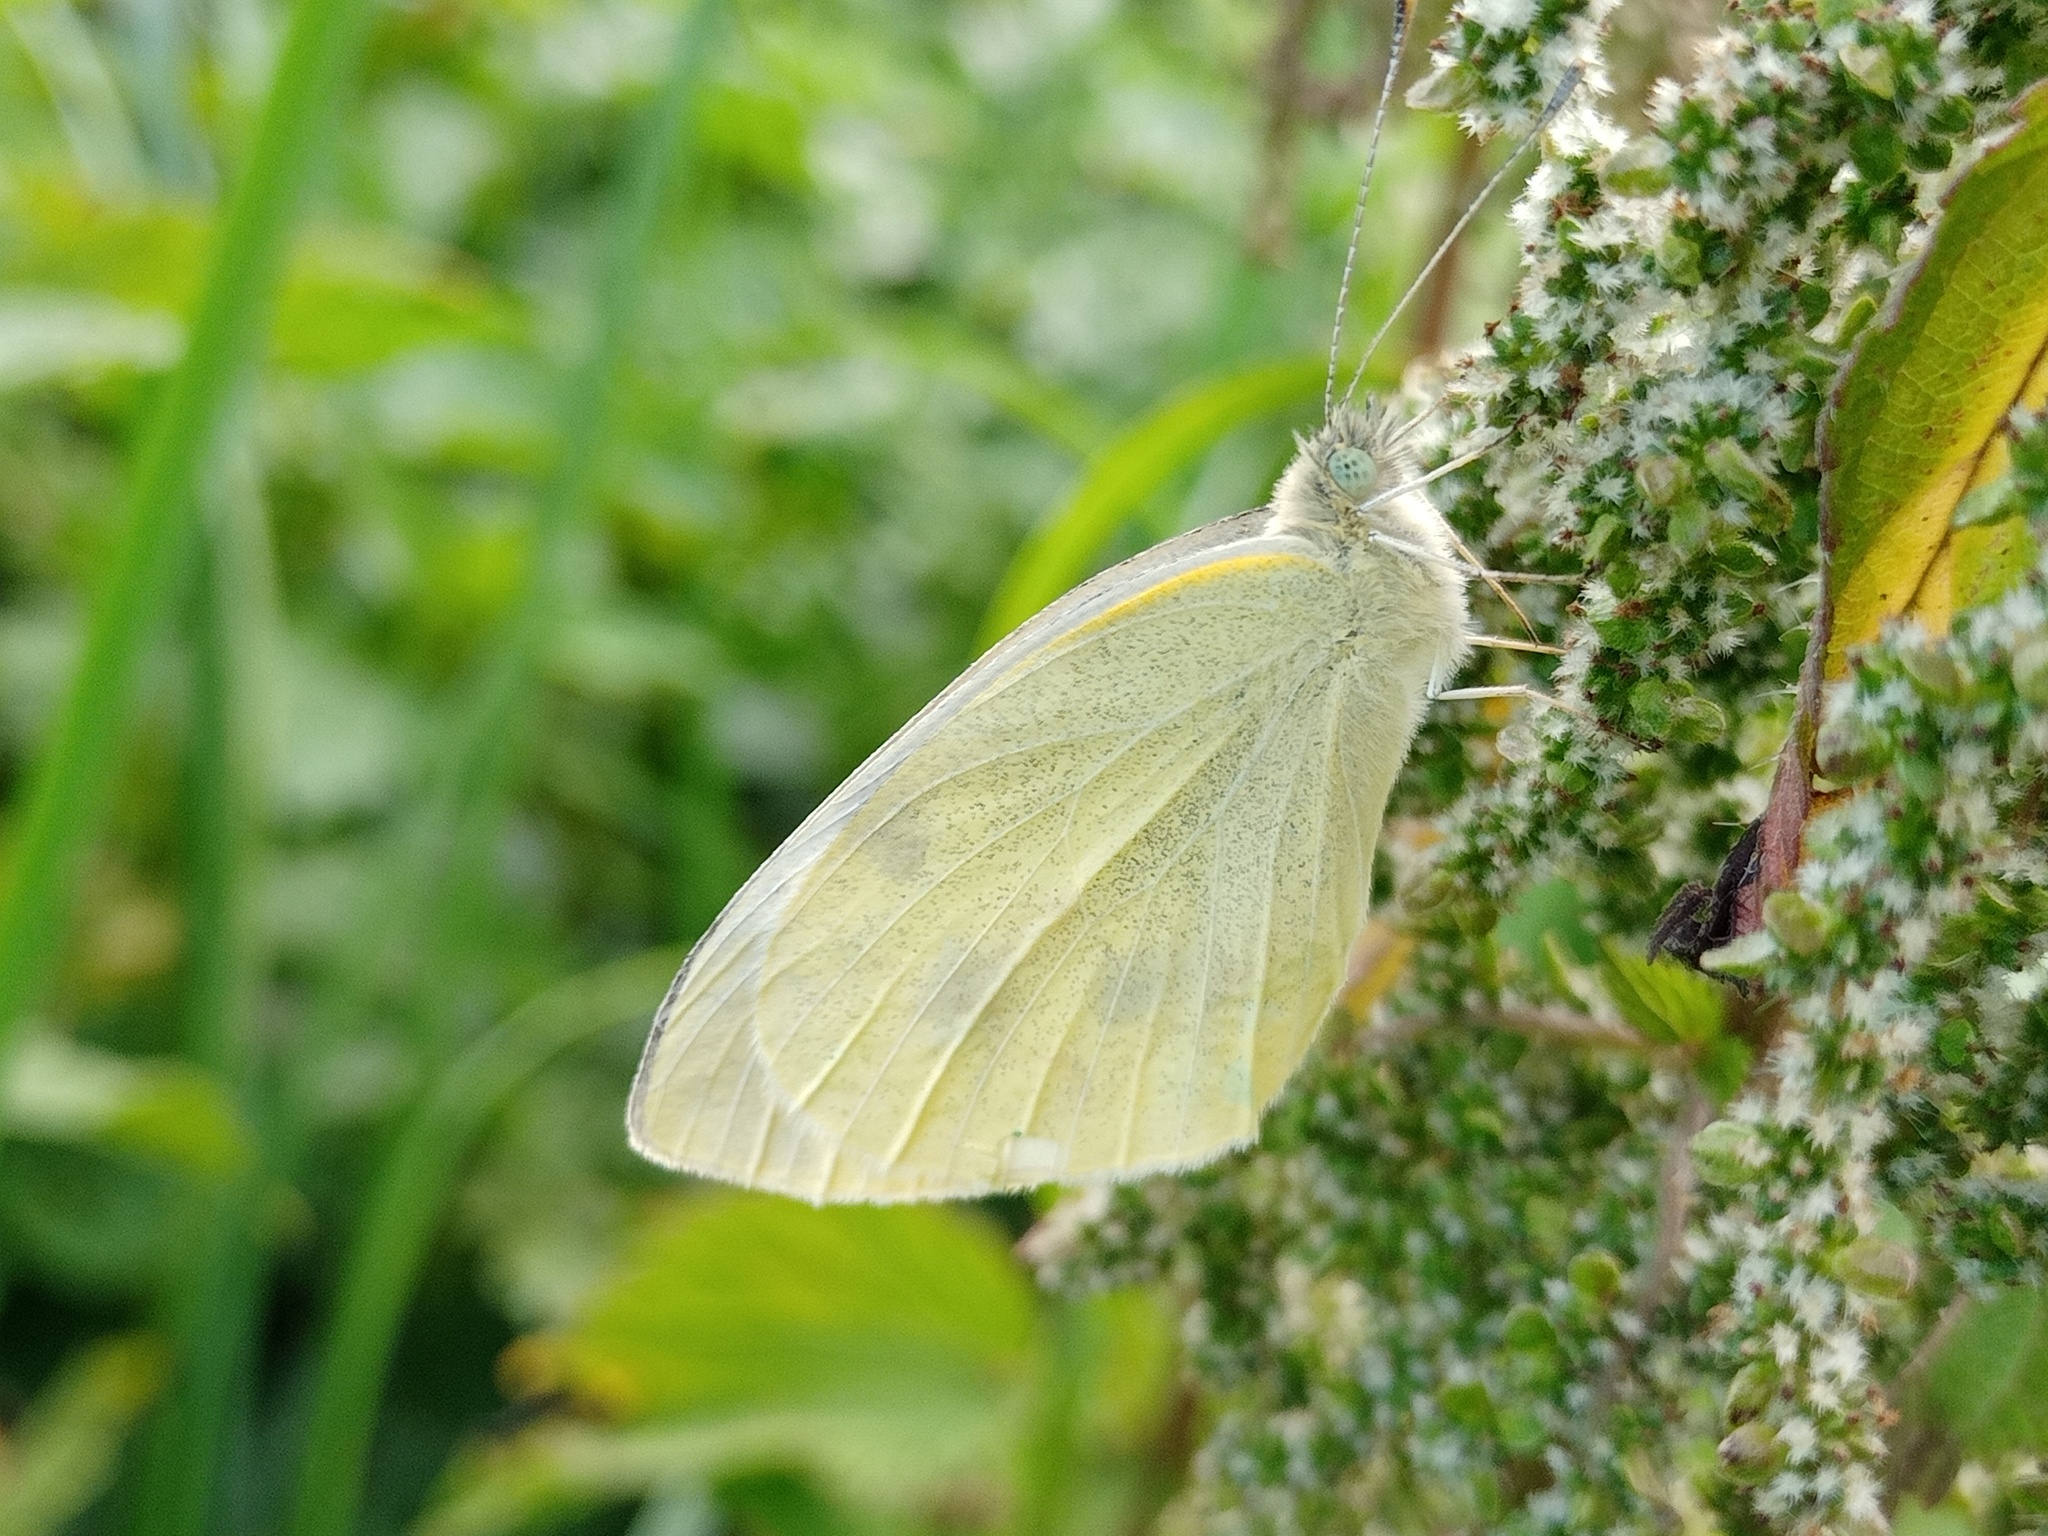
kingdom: Animalia
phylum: Arthropoda
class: Insecta
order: Lepidoptera
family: Pieridae
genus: Pieris
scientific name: Pieris rapae
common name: Small white
